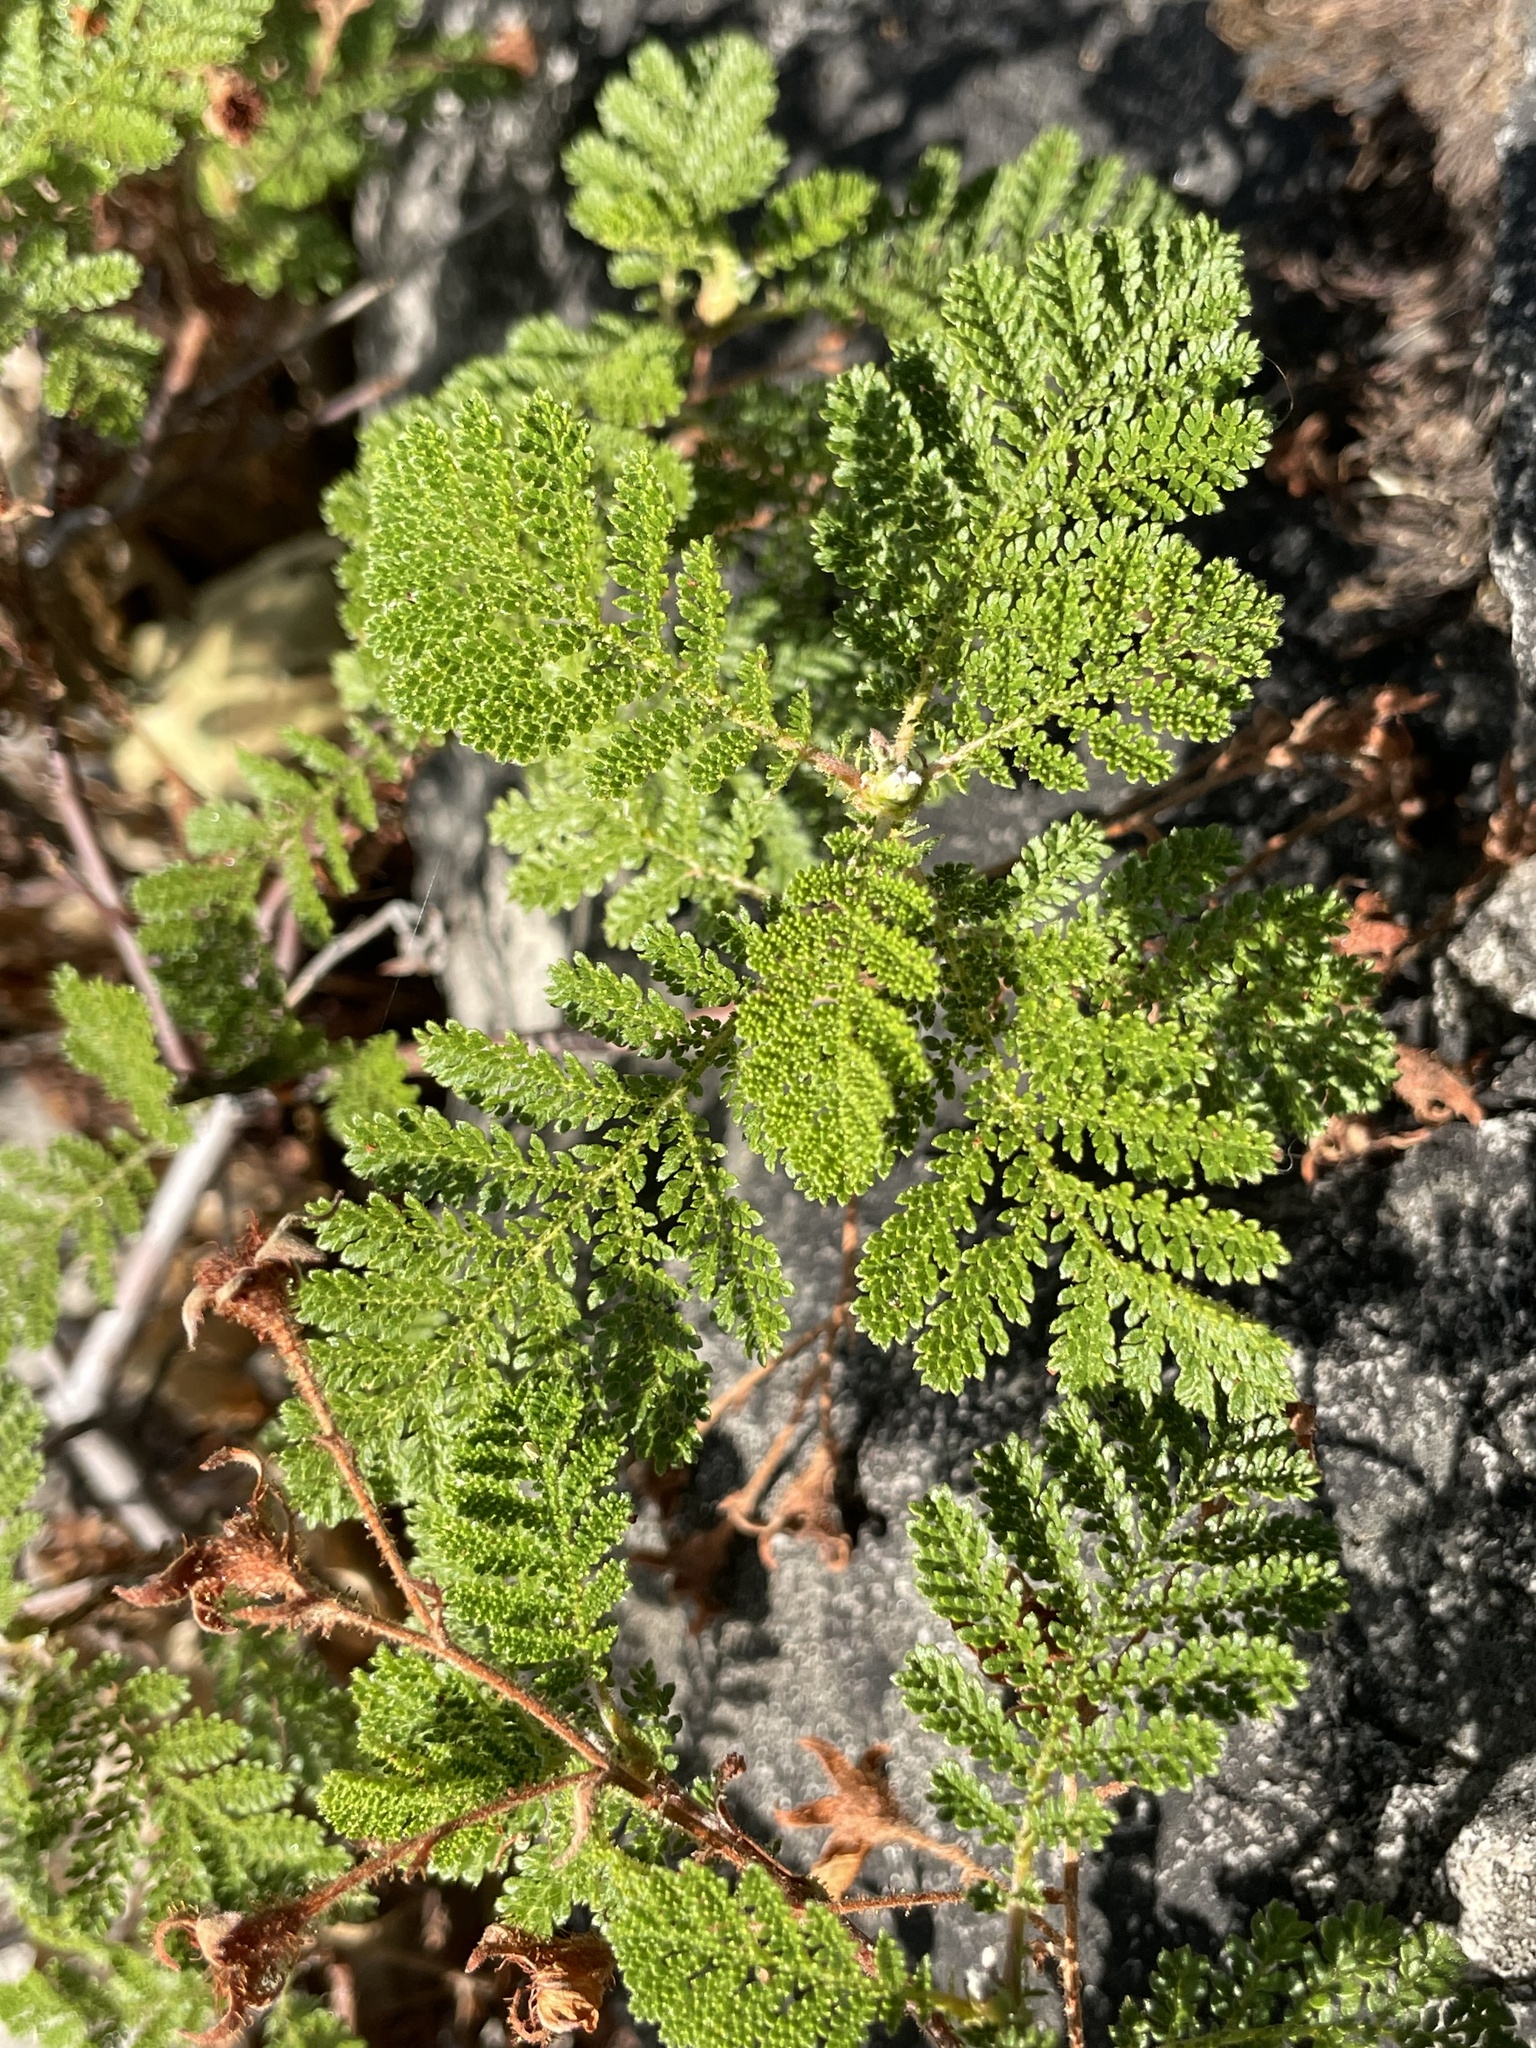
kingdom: Plantae
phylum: Tracheophyta
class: Magnoliopsida
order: Rosales
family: Rosaceae
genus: Chamaebatia
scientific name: Chamaebatia foliolosa
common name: Mountain misery
